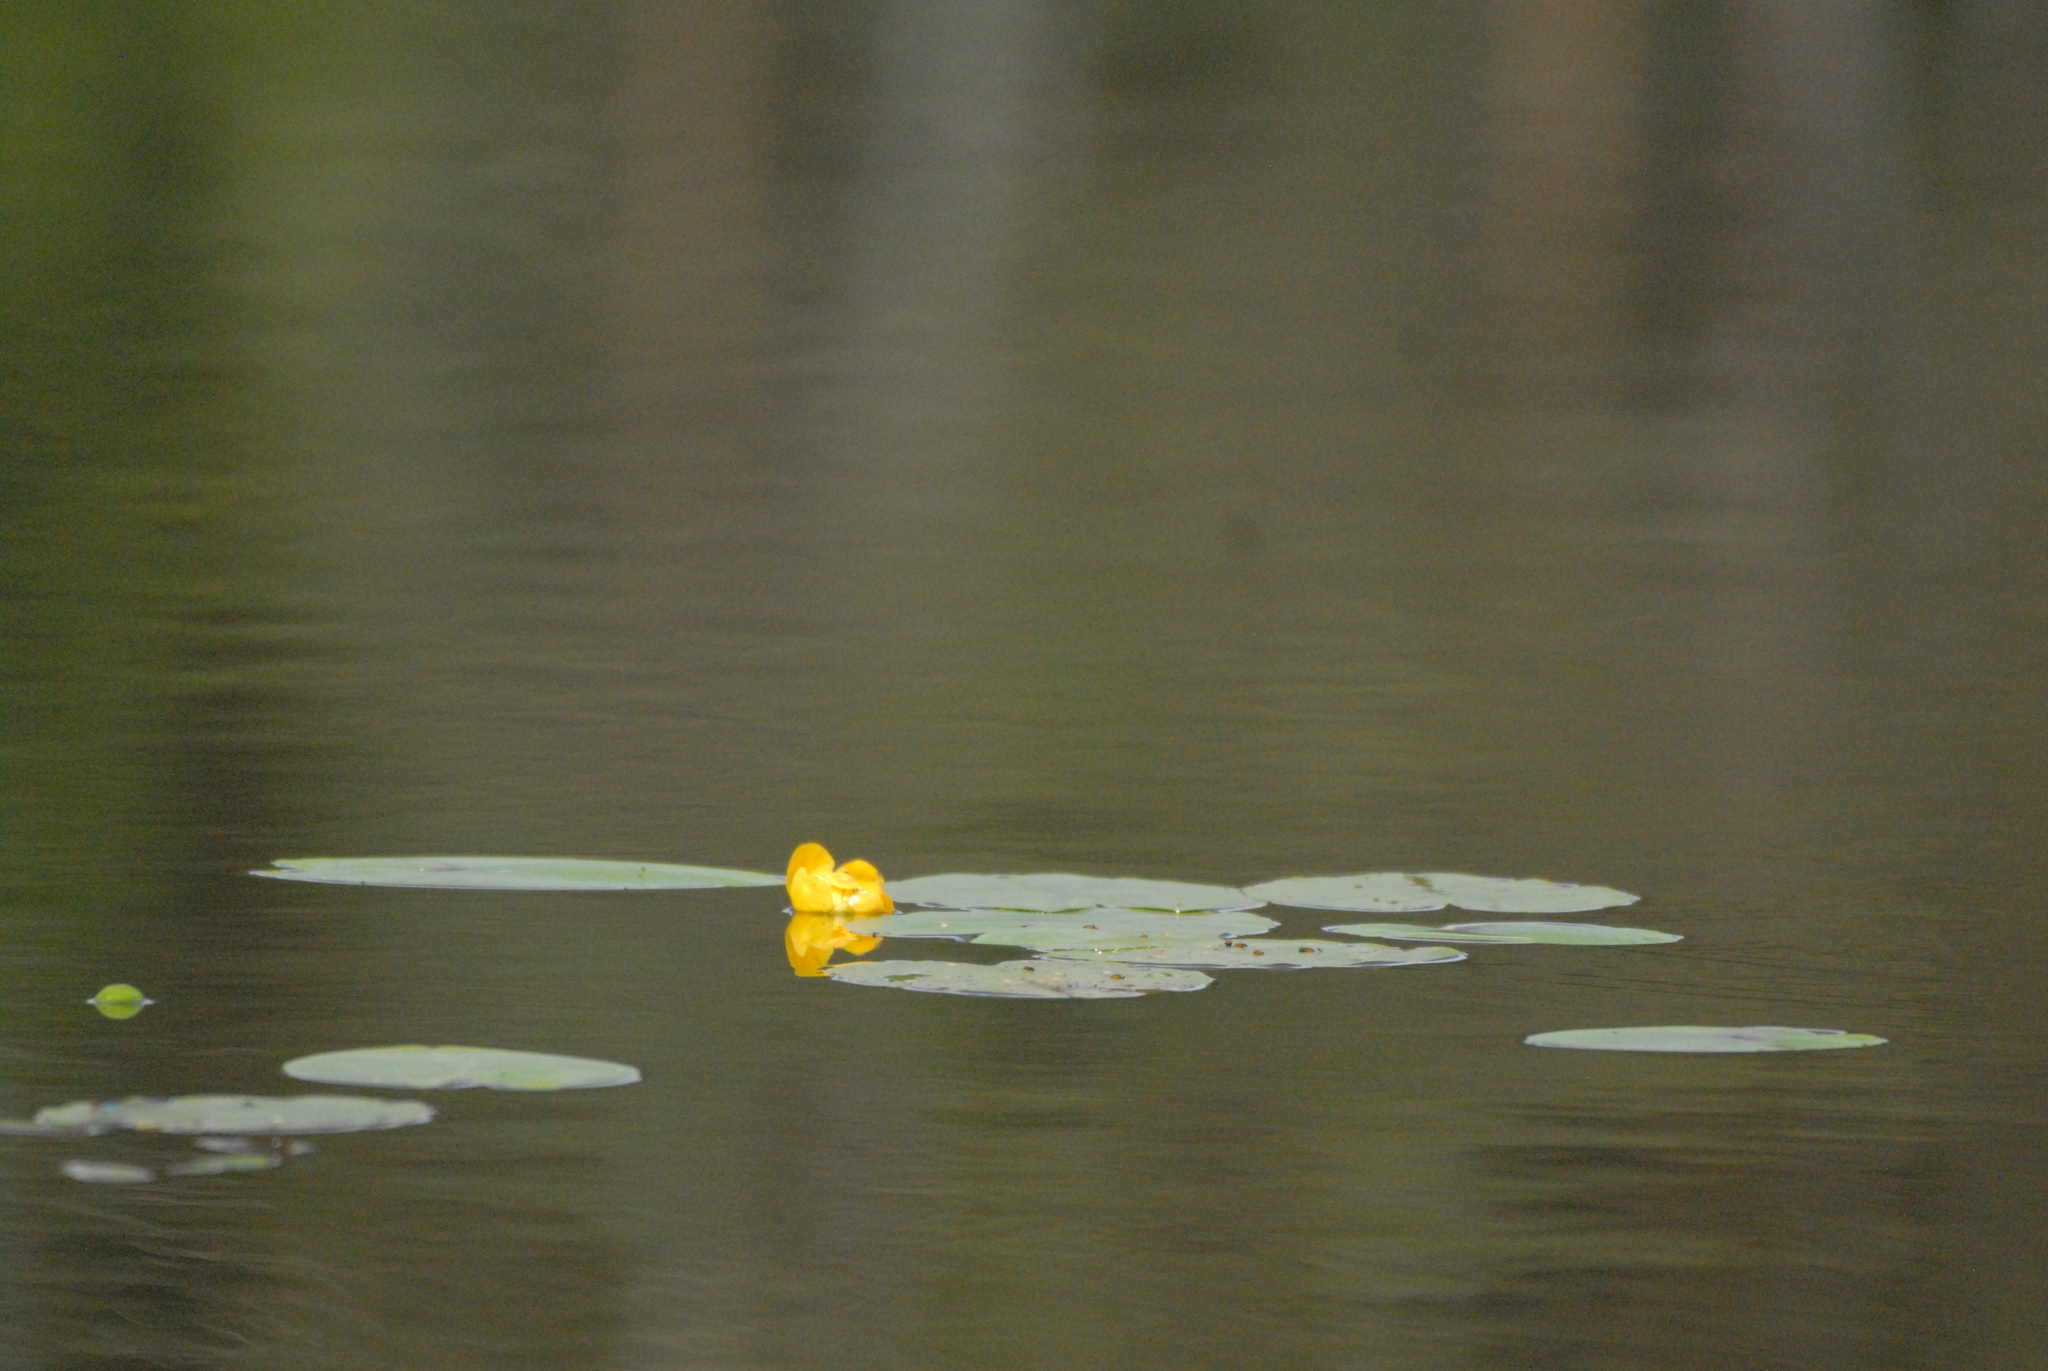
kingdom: Plantae
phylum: Tracheophyta
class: Magnoliopsida
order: Nymphaeales
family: Nymphaeaceae
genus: Nuphar
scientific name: Nuphar lutea
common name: Yellow water-lily
